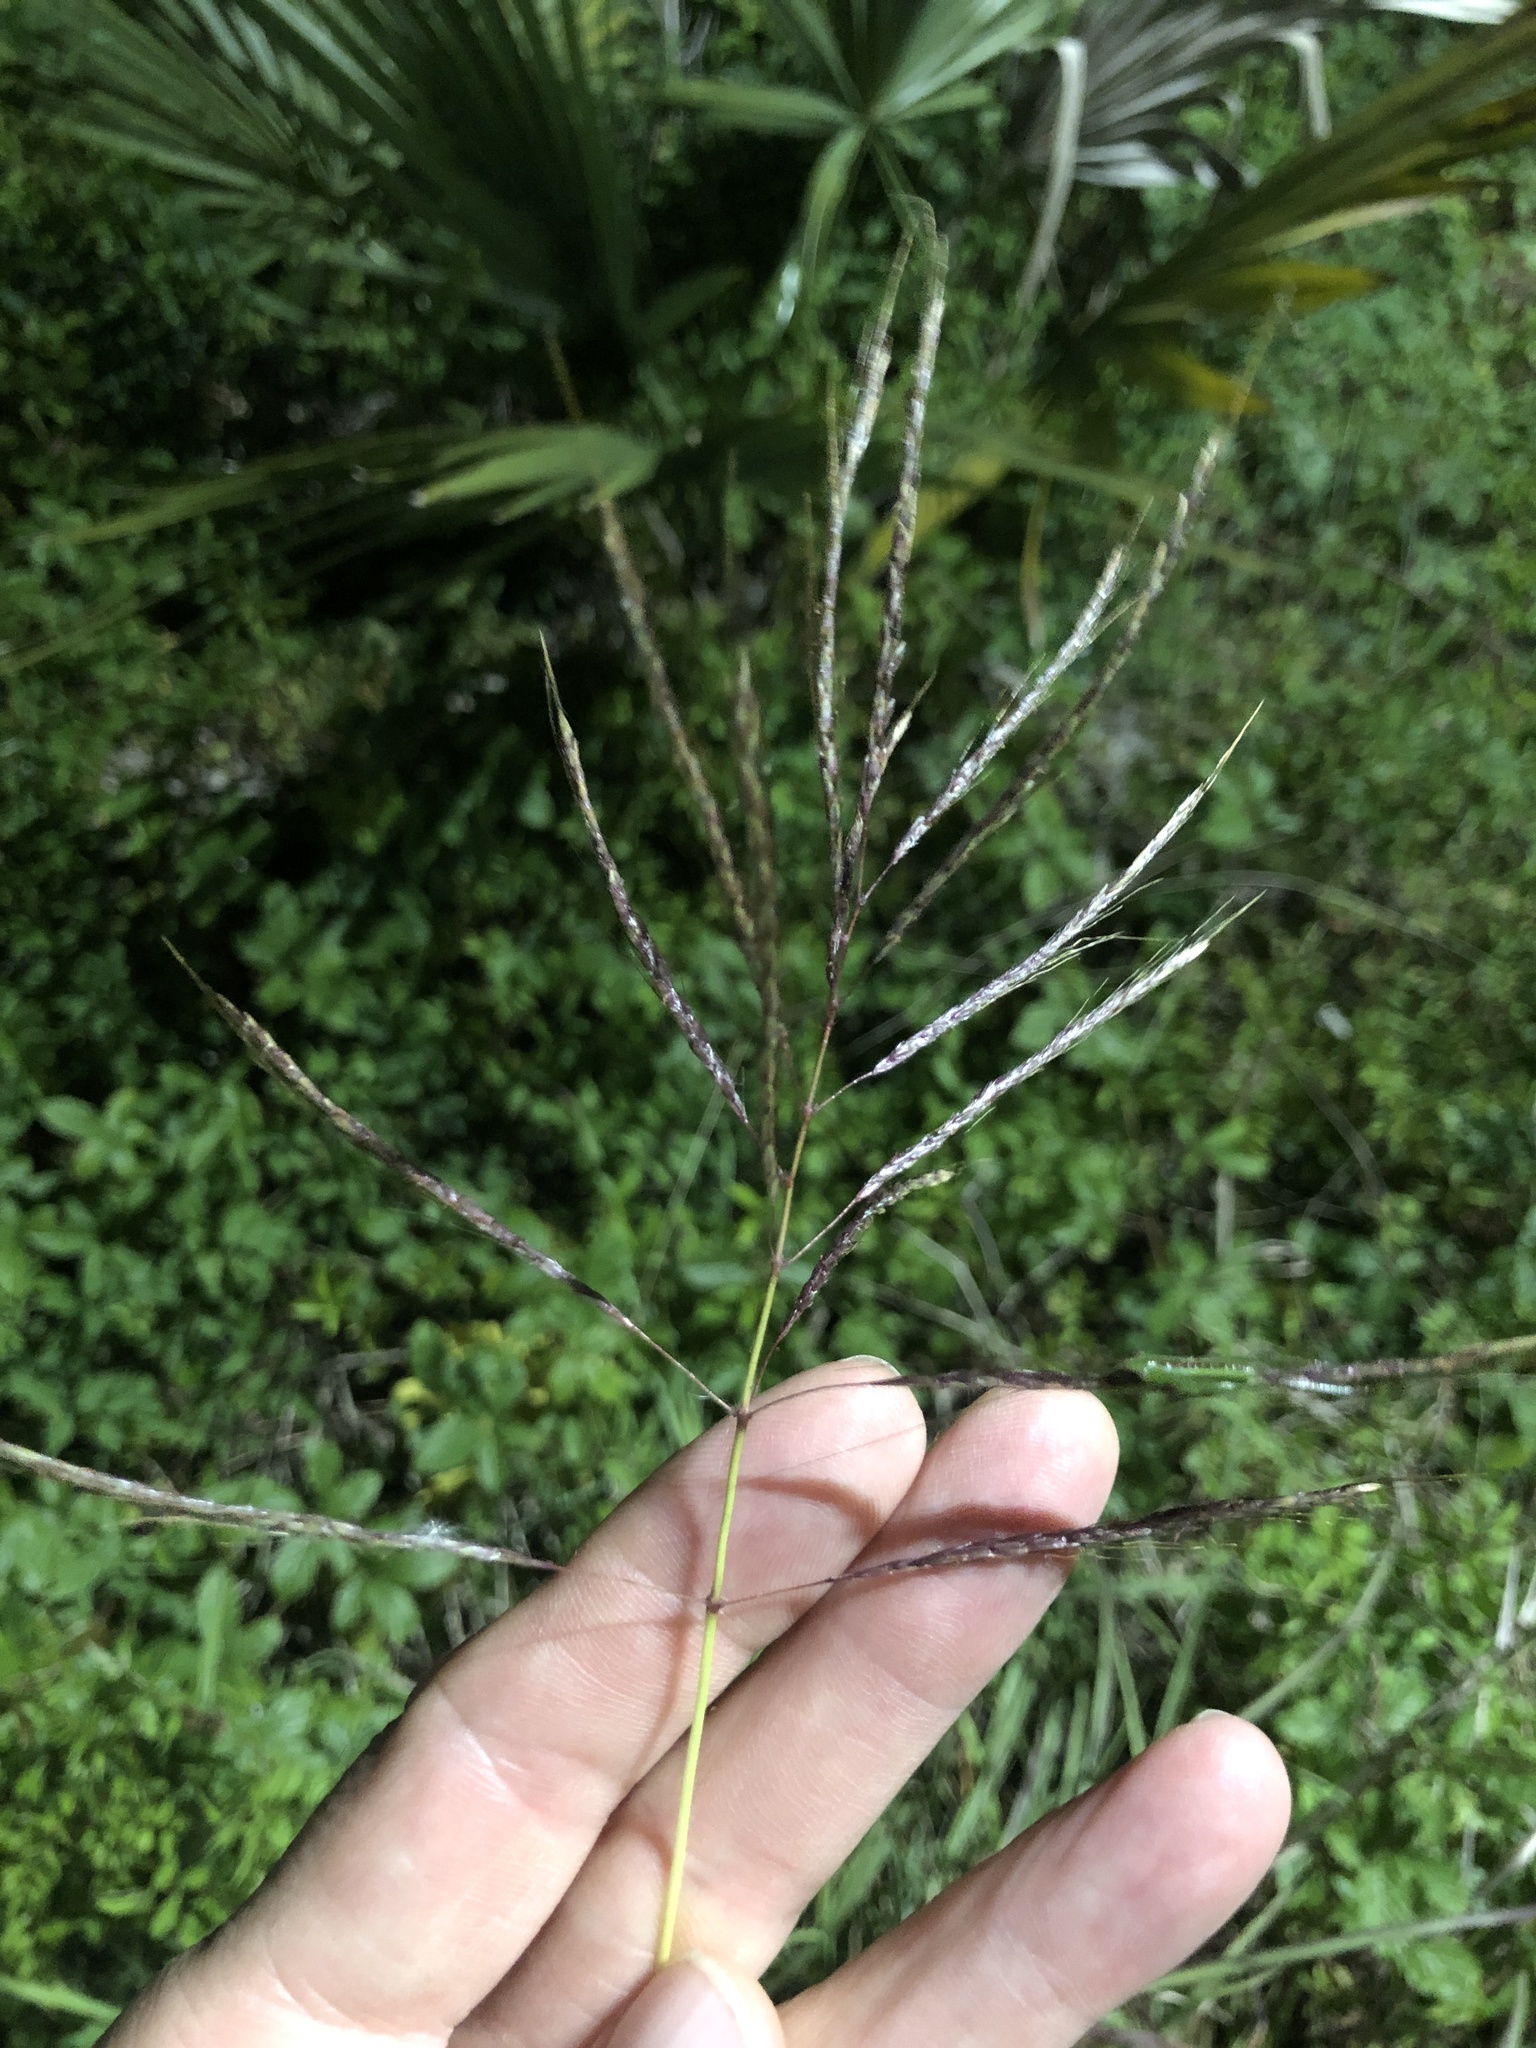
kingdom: Plantae
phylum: Tracheophyta
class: Liliopsida
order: Poales
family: Poaceae
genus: Bothriochloa
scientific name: Bothriochloa bladhii
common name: Caucasian bluestem
